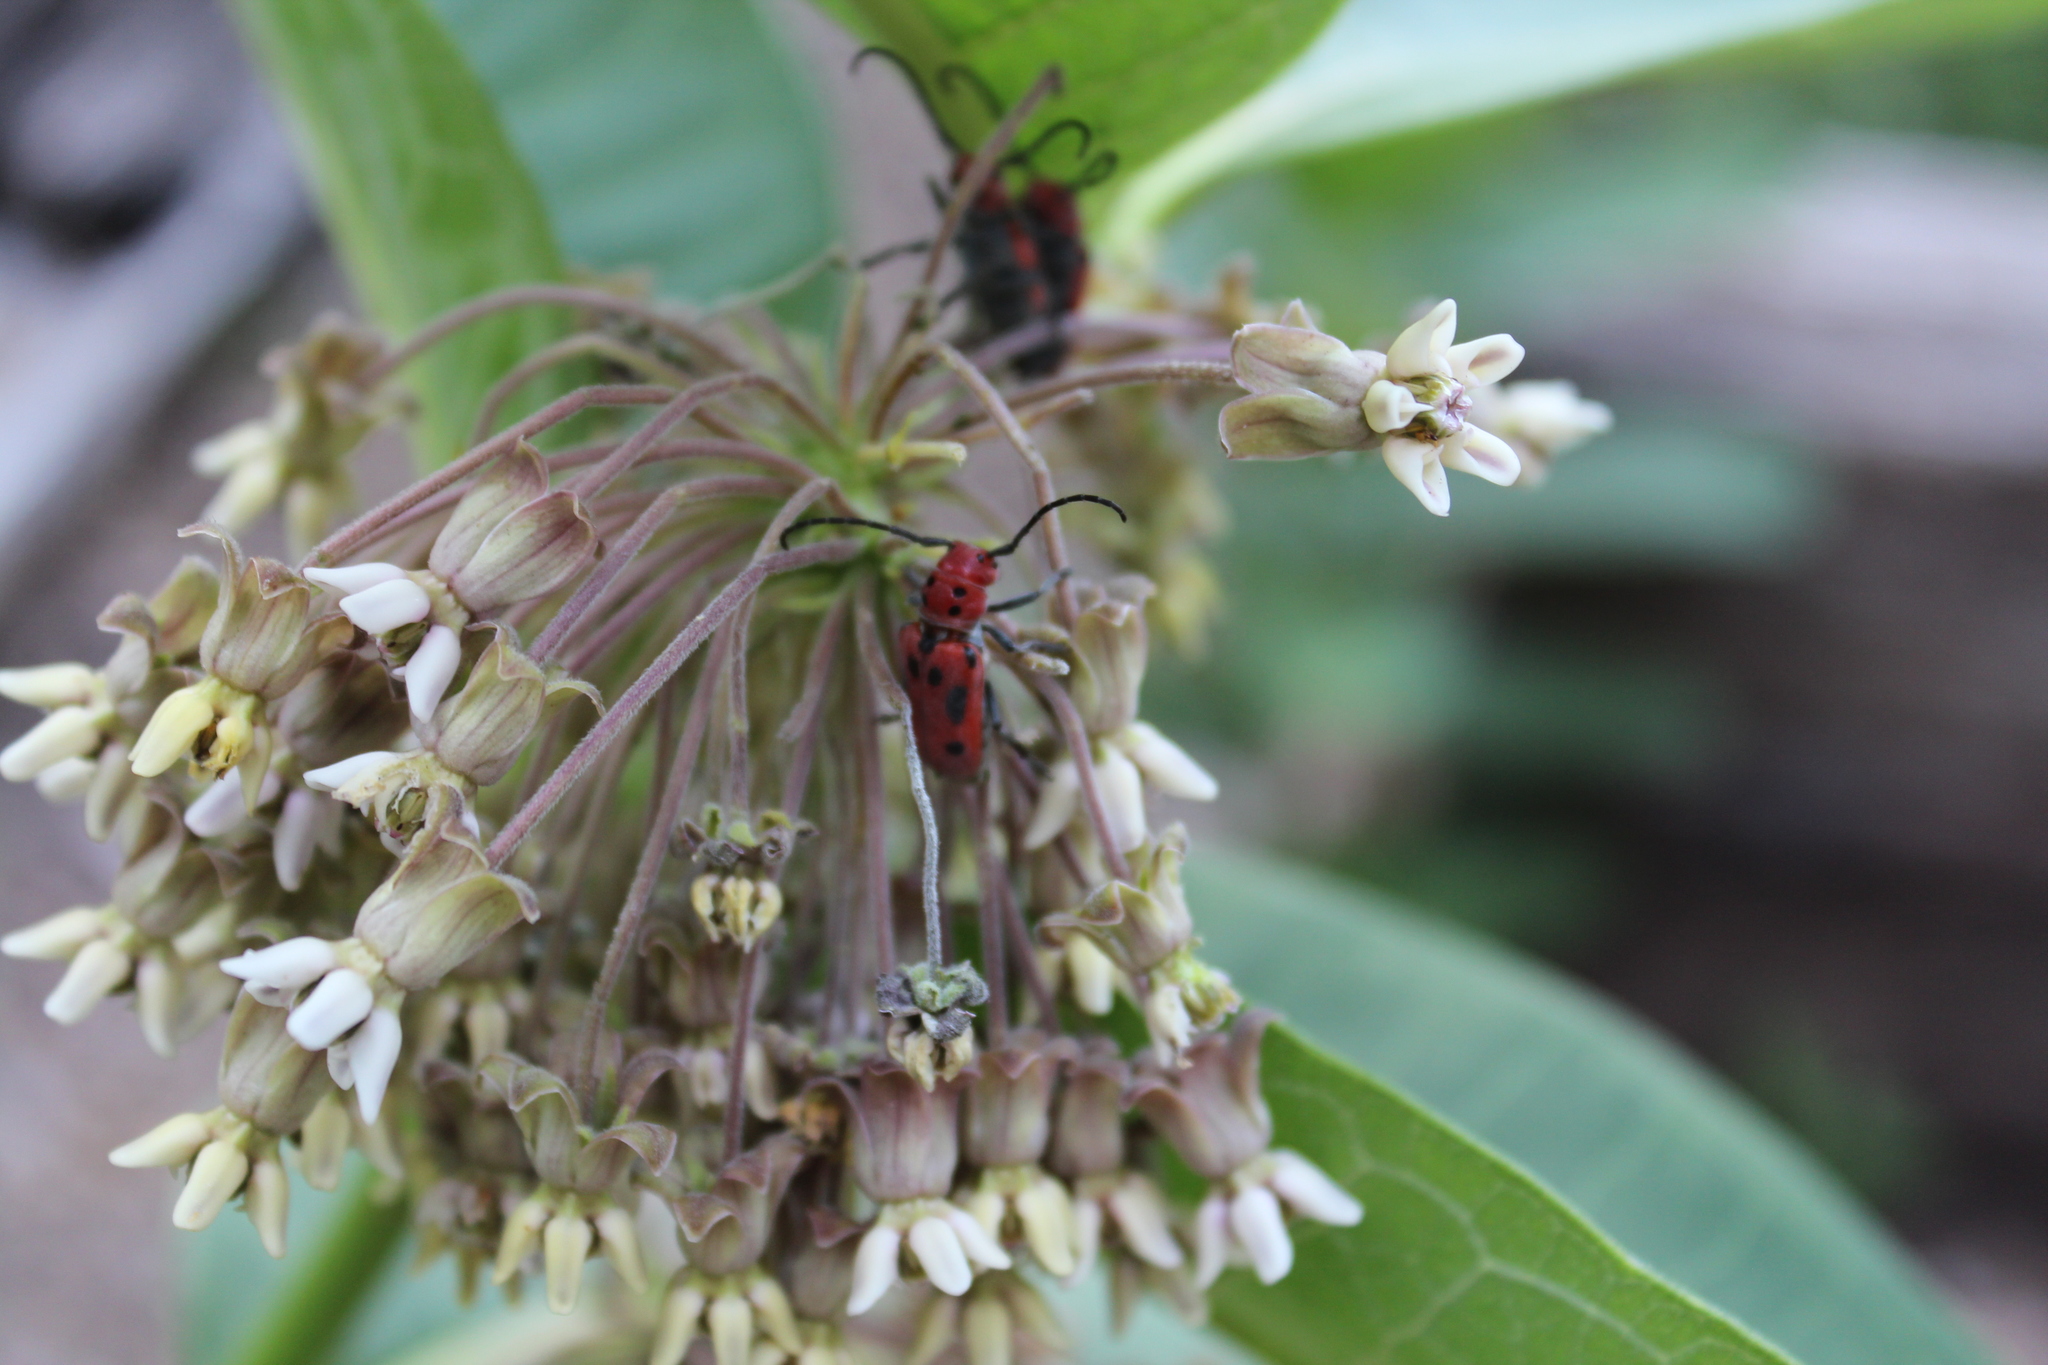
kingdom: Animalia
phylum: Arthropoda
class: Insecta
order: Coleoptera
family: Cerambycidae
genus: Tetraopes
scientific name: Tetraopes tetrophthalmus
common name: Red milkweed beetle
